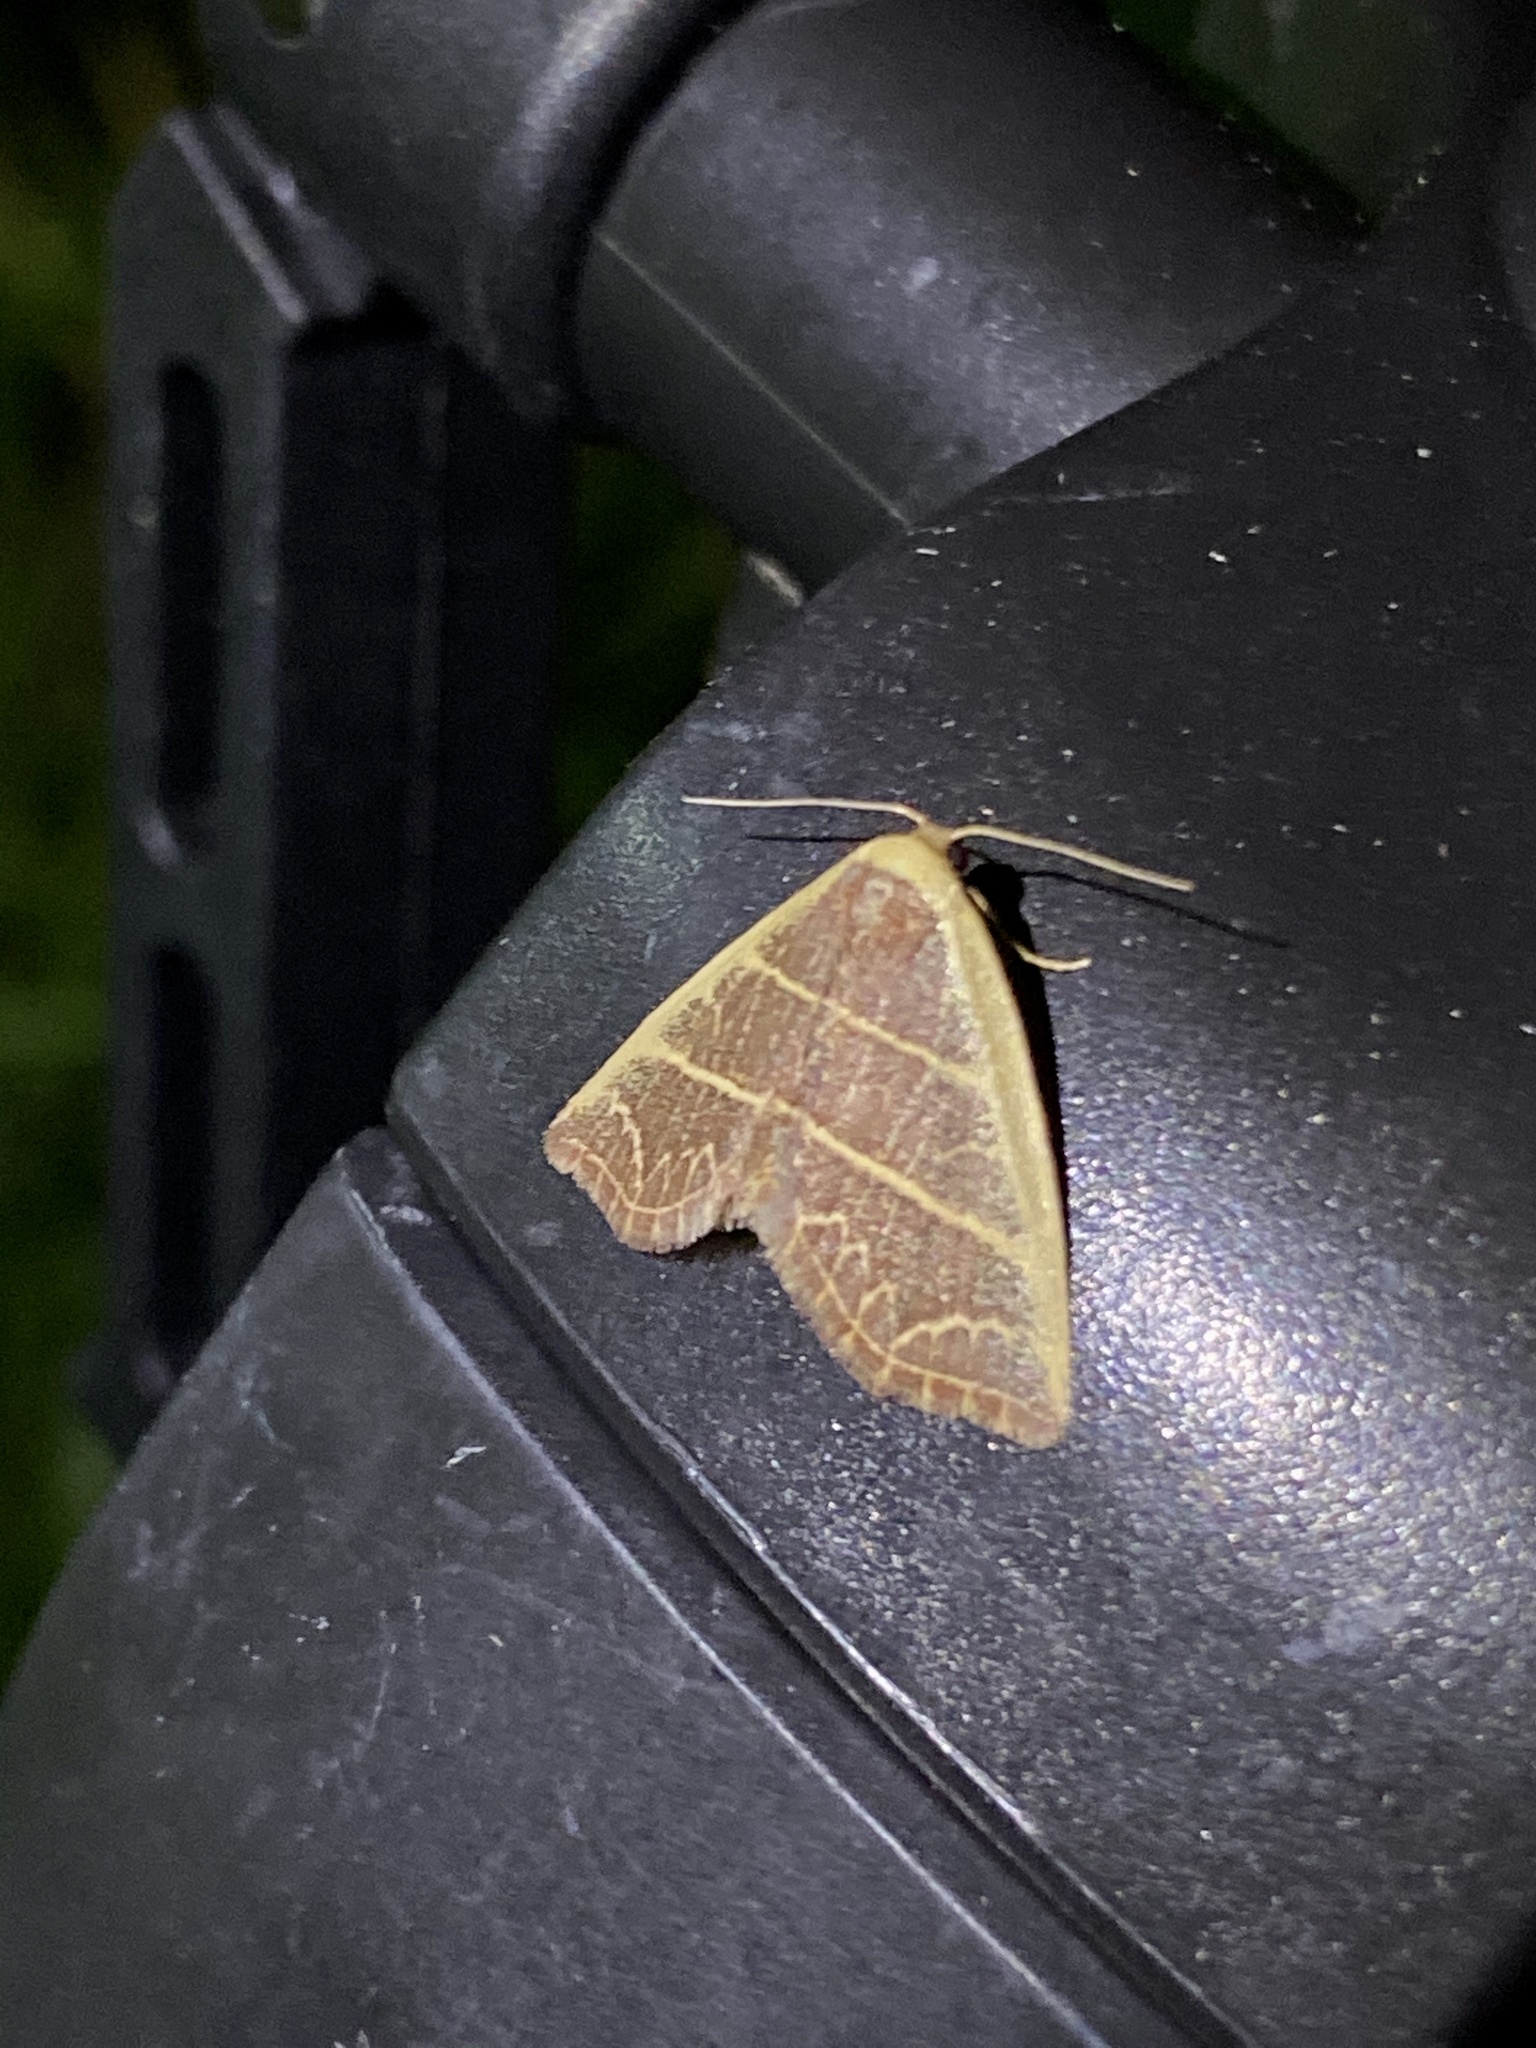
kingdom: Animalia
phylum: Arthropoda
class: Insecta
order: Lepidoptera
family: Noctuidae
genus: Oruza
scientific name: Oruza mira
